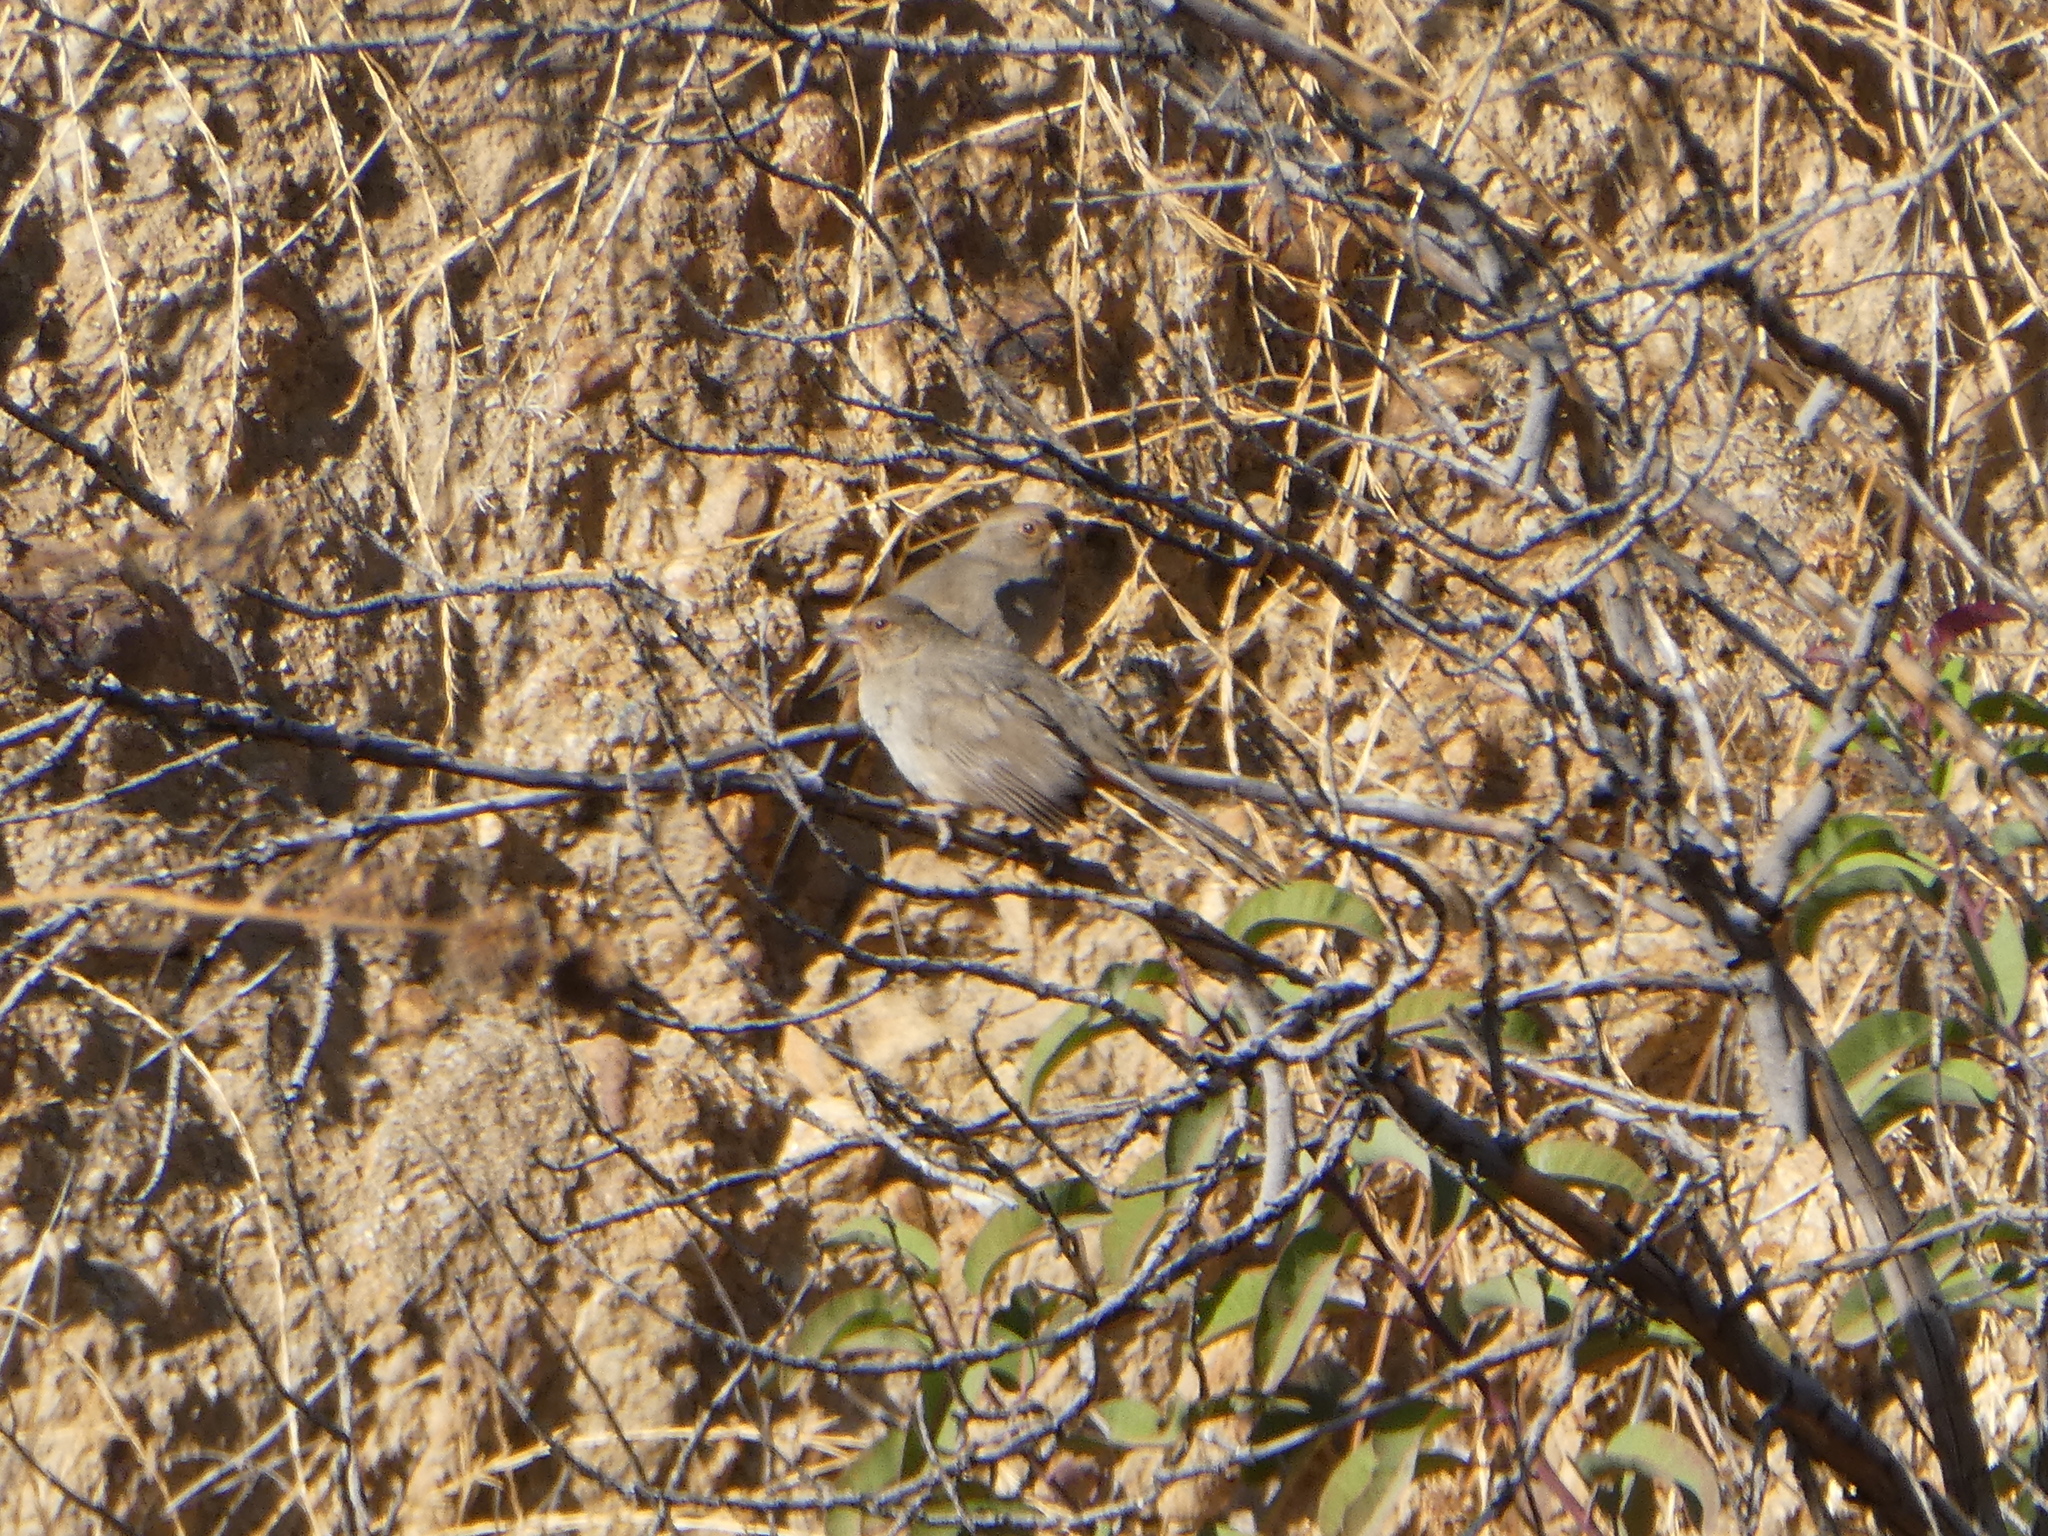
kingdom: Animalia
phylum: Chordata
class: Aves
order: Passeriformes
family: Passerellidae
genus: Melozone
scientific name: Melozone crissalis
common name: California towhee
